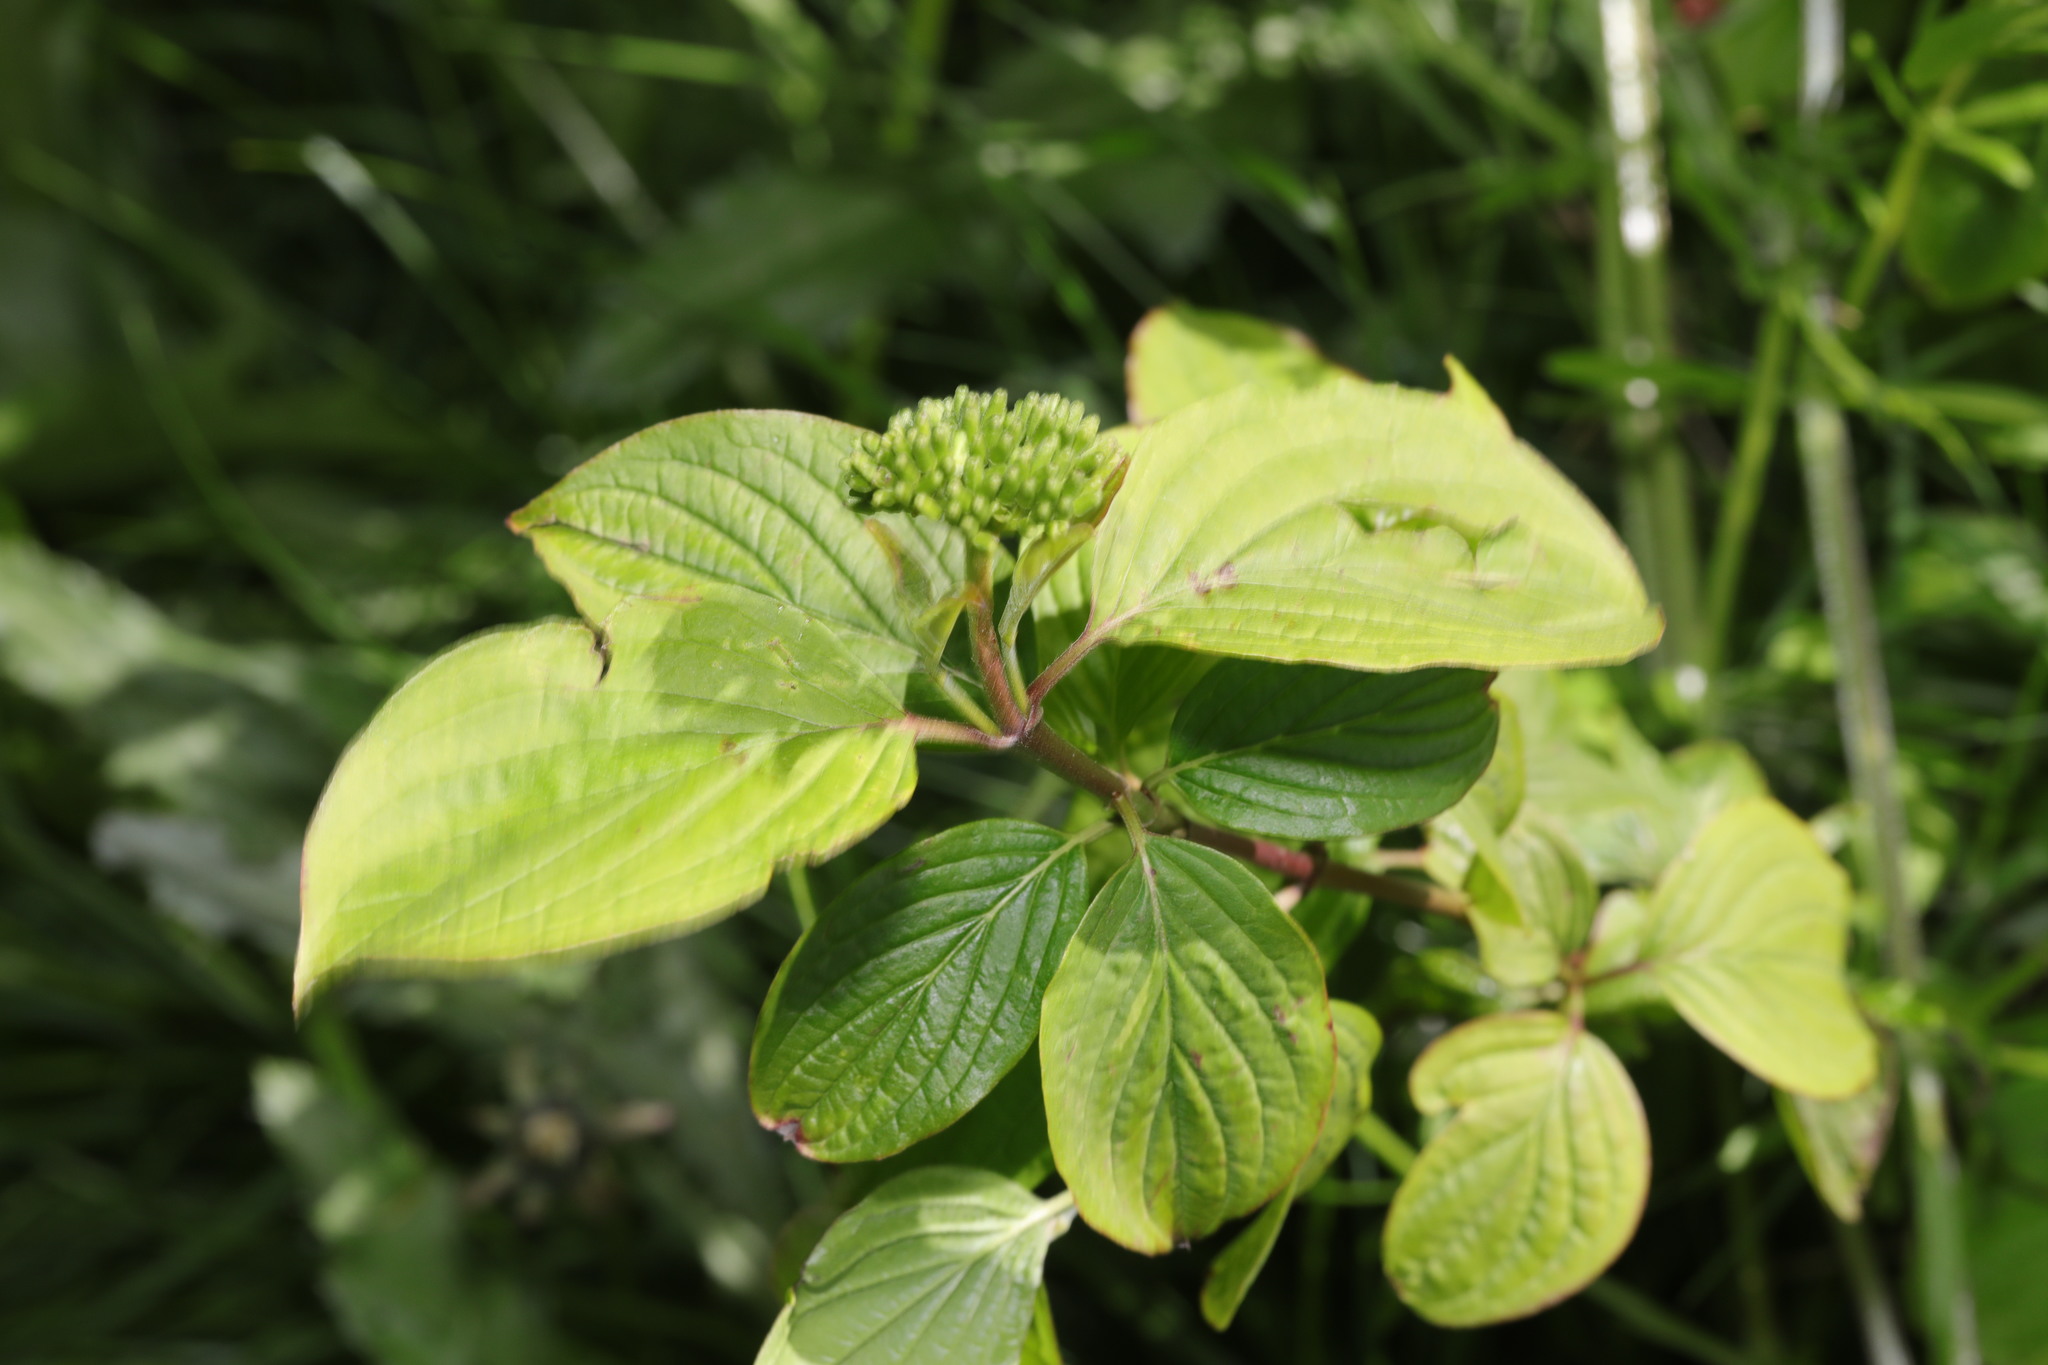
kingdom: Plantae
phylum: Tracheophyta
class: Magnoliopsida
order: Cornales
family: Cornaceae
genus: Cornus
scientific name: Cornus sanguinea
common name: Dogwood
